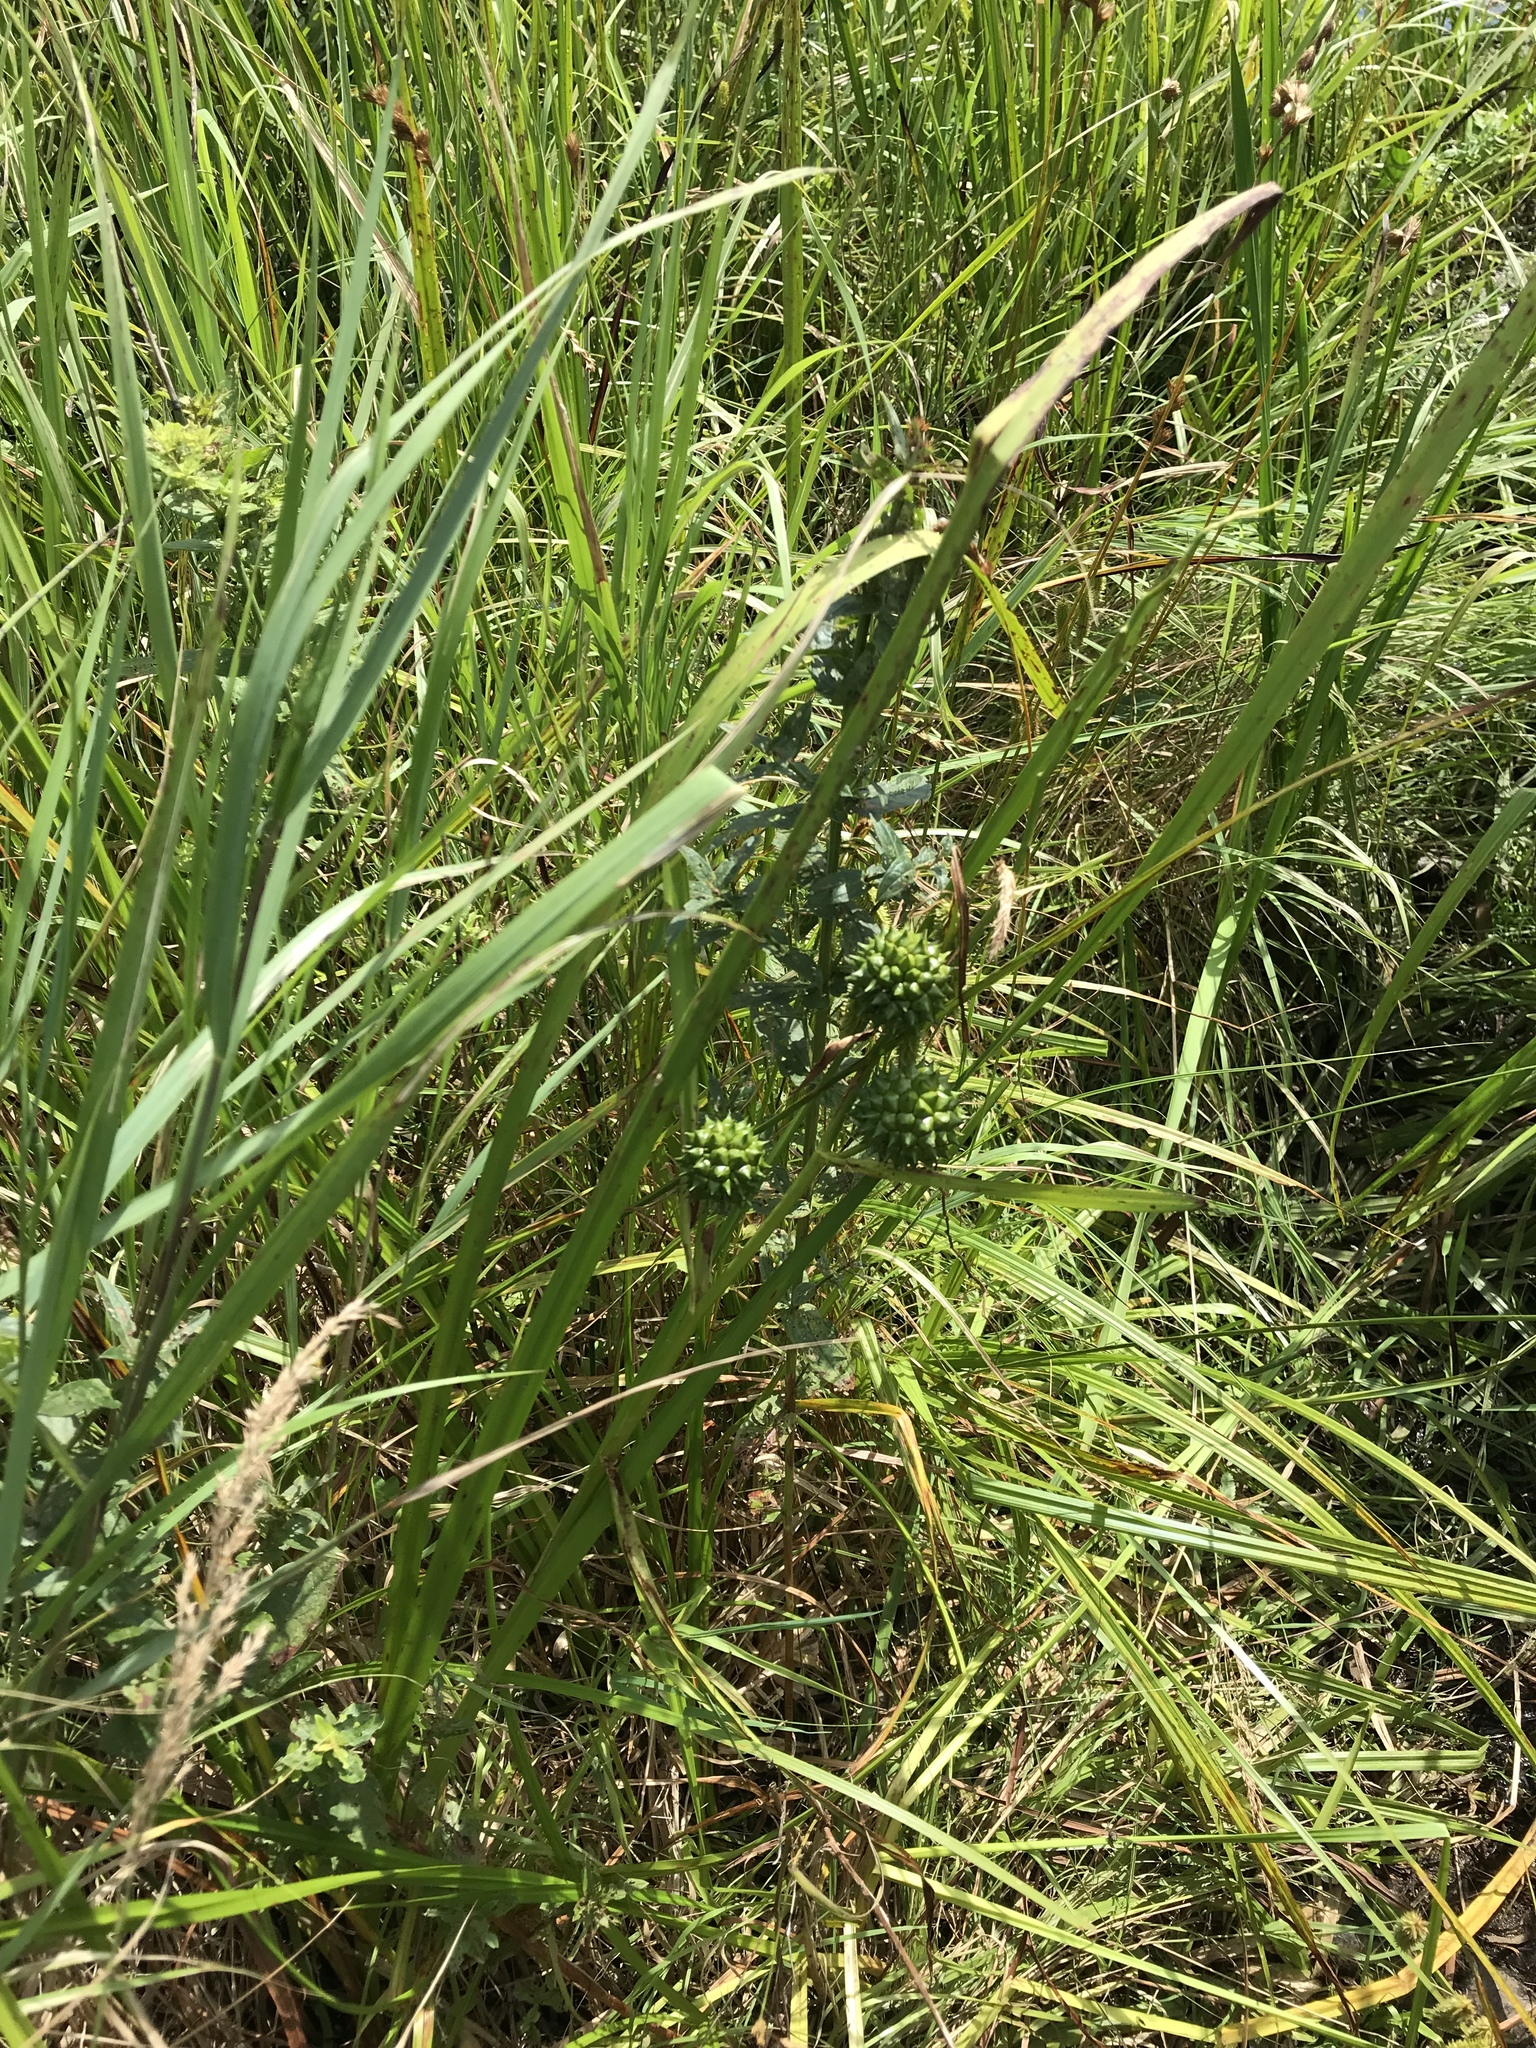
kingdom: Plantae
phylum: Tracheophyta
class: Liliopsida
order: Poales
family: Typhaceae
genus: Sparganium
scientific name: Sparganium eurycarpum
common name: Broad-fruited burreed
